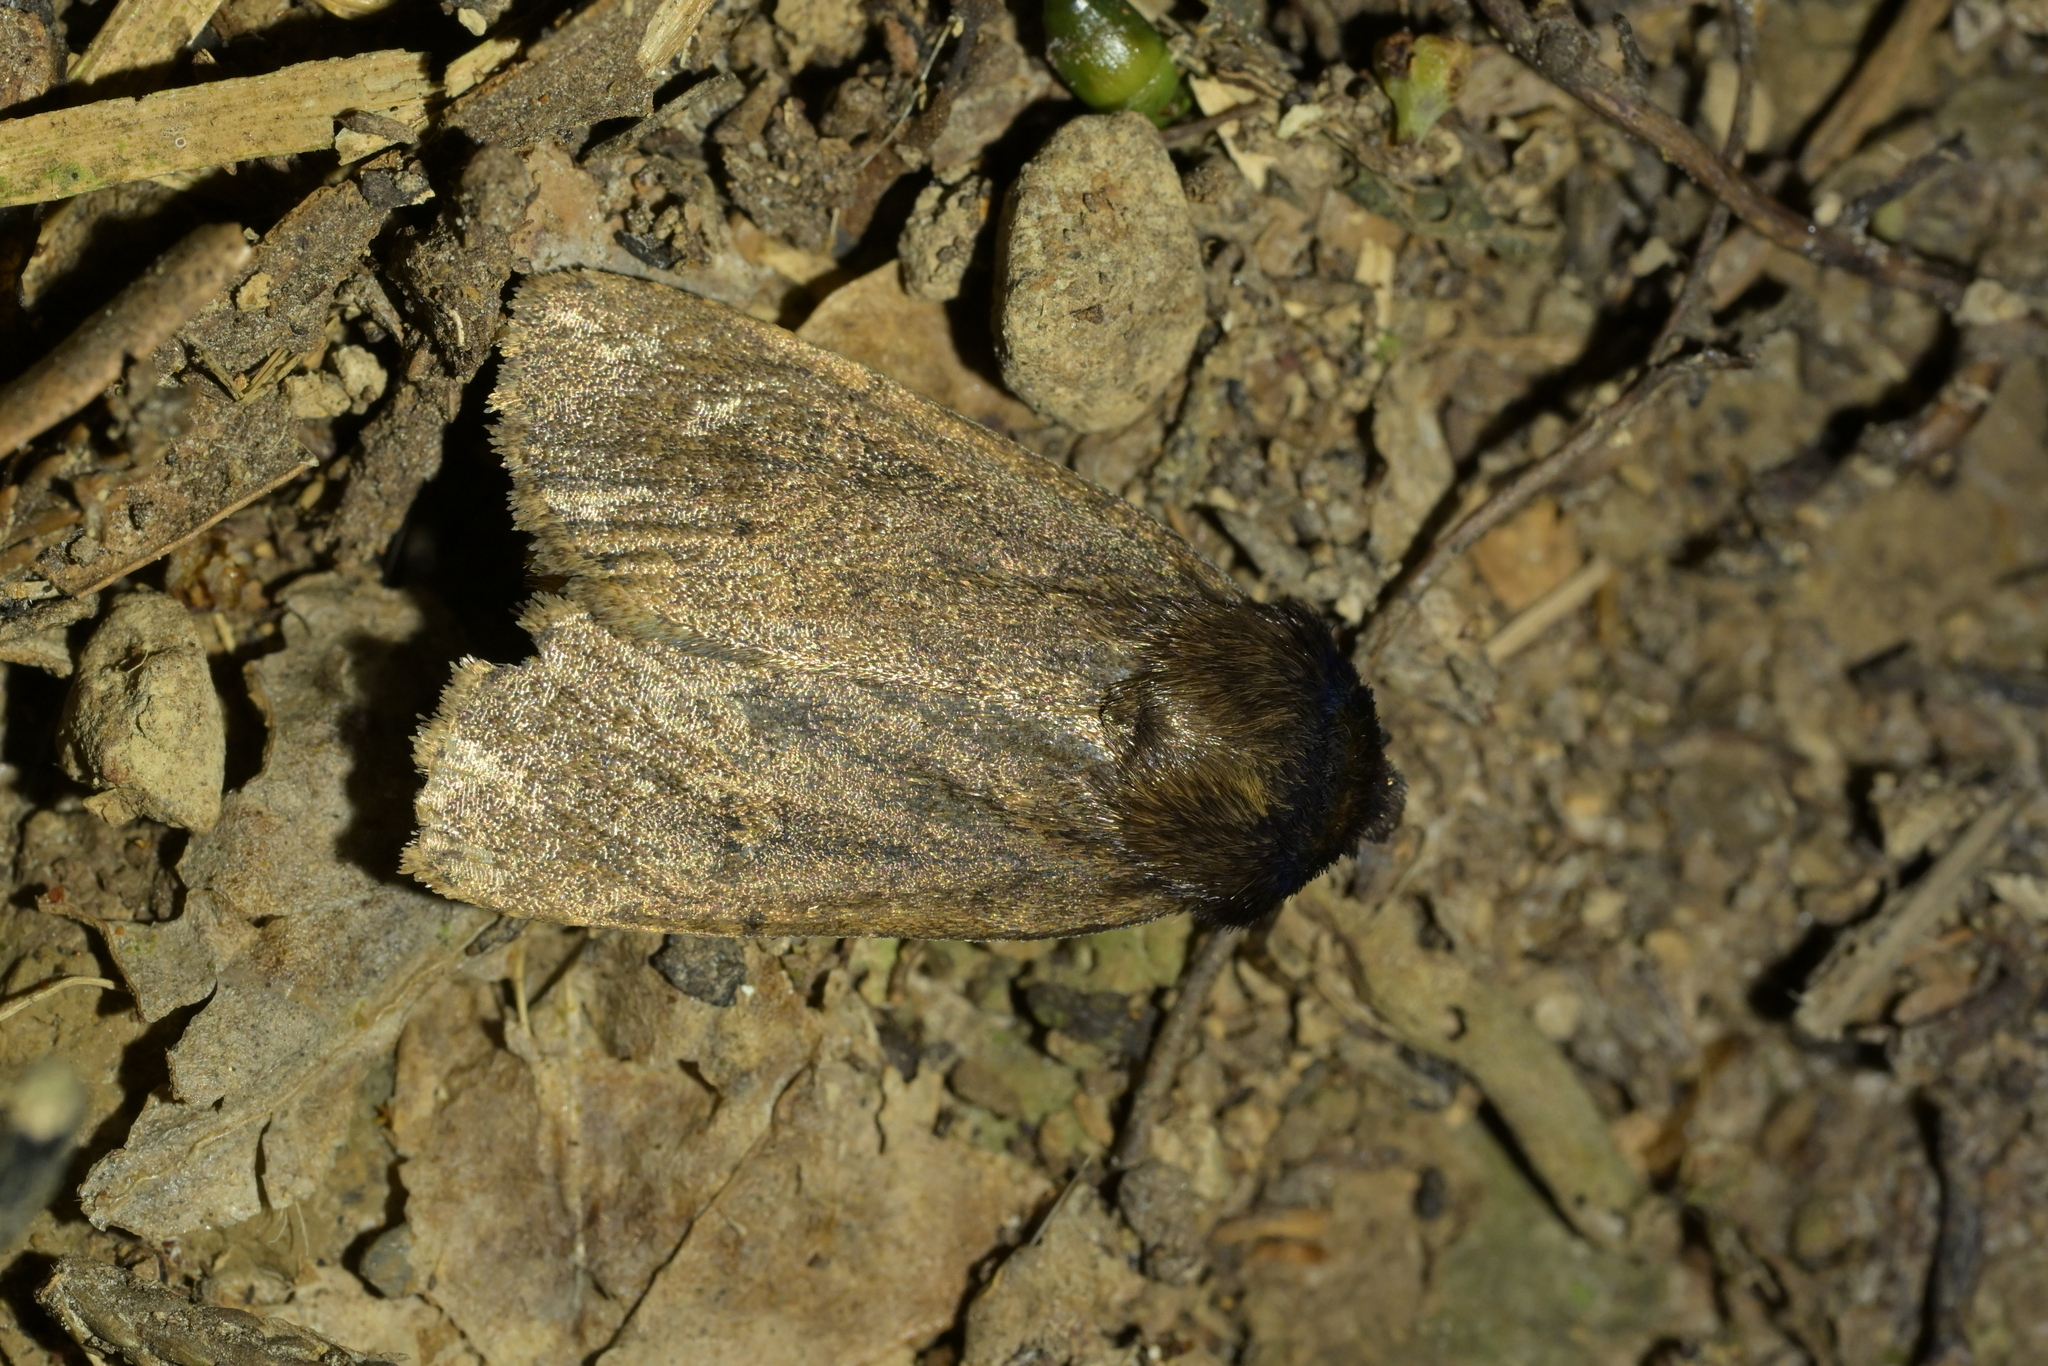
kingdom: Animalia
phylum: Arthropoda
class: Insecta
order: Lepidoptera
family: Noctuidae
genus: Bityla
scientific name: Bityla defigurata
